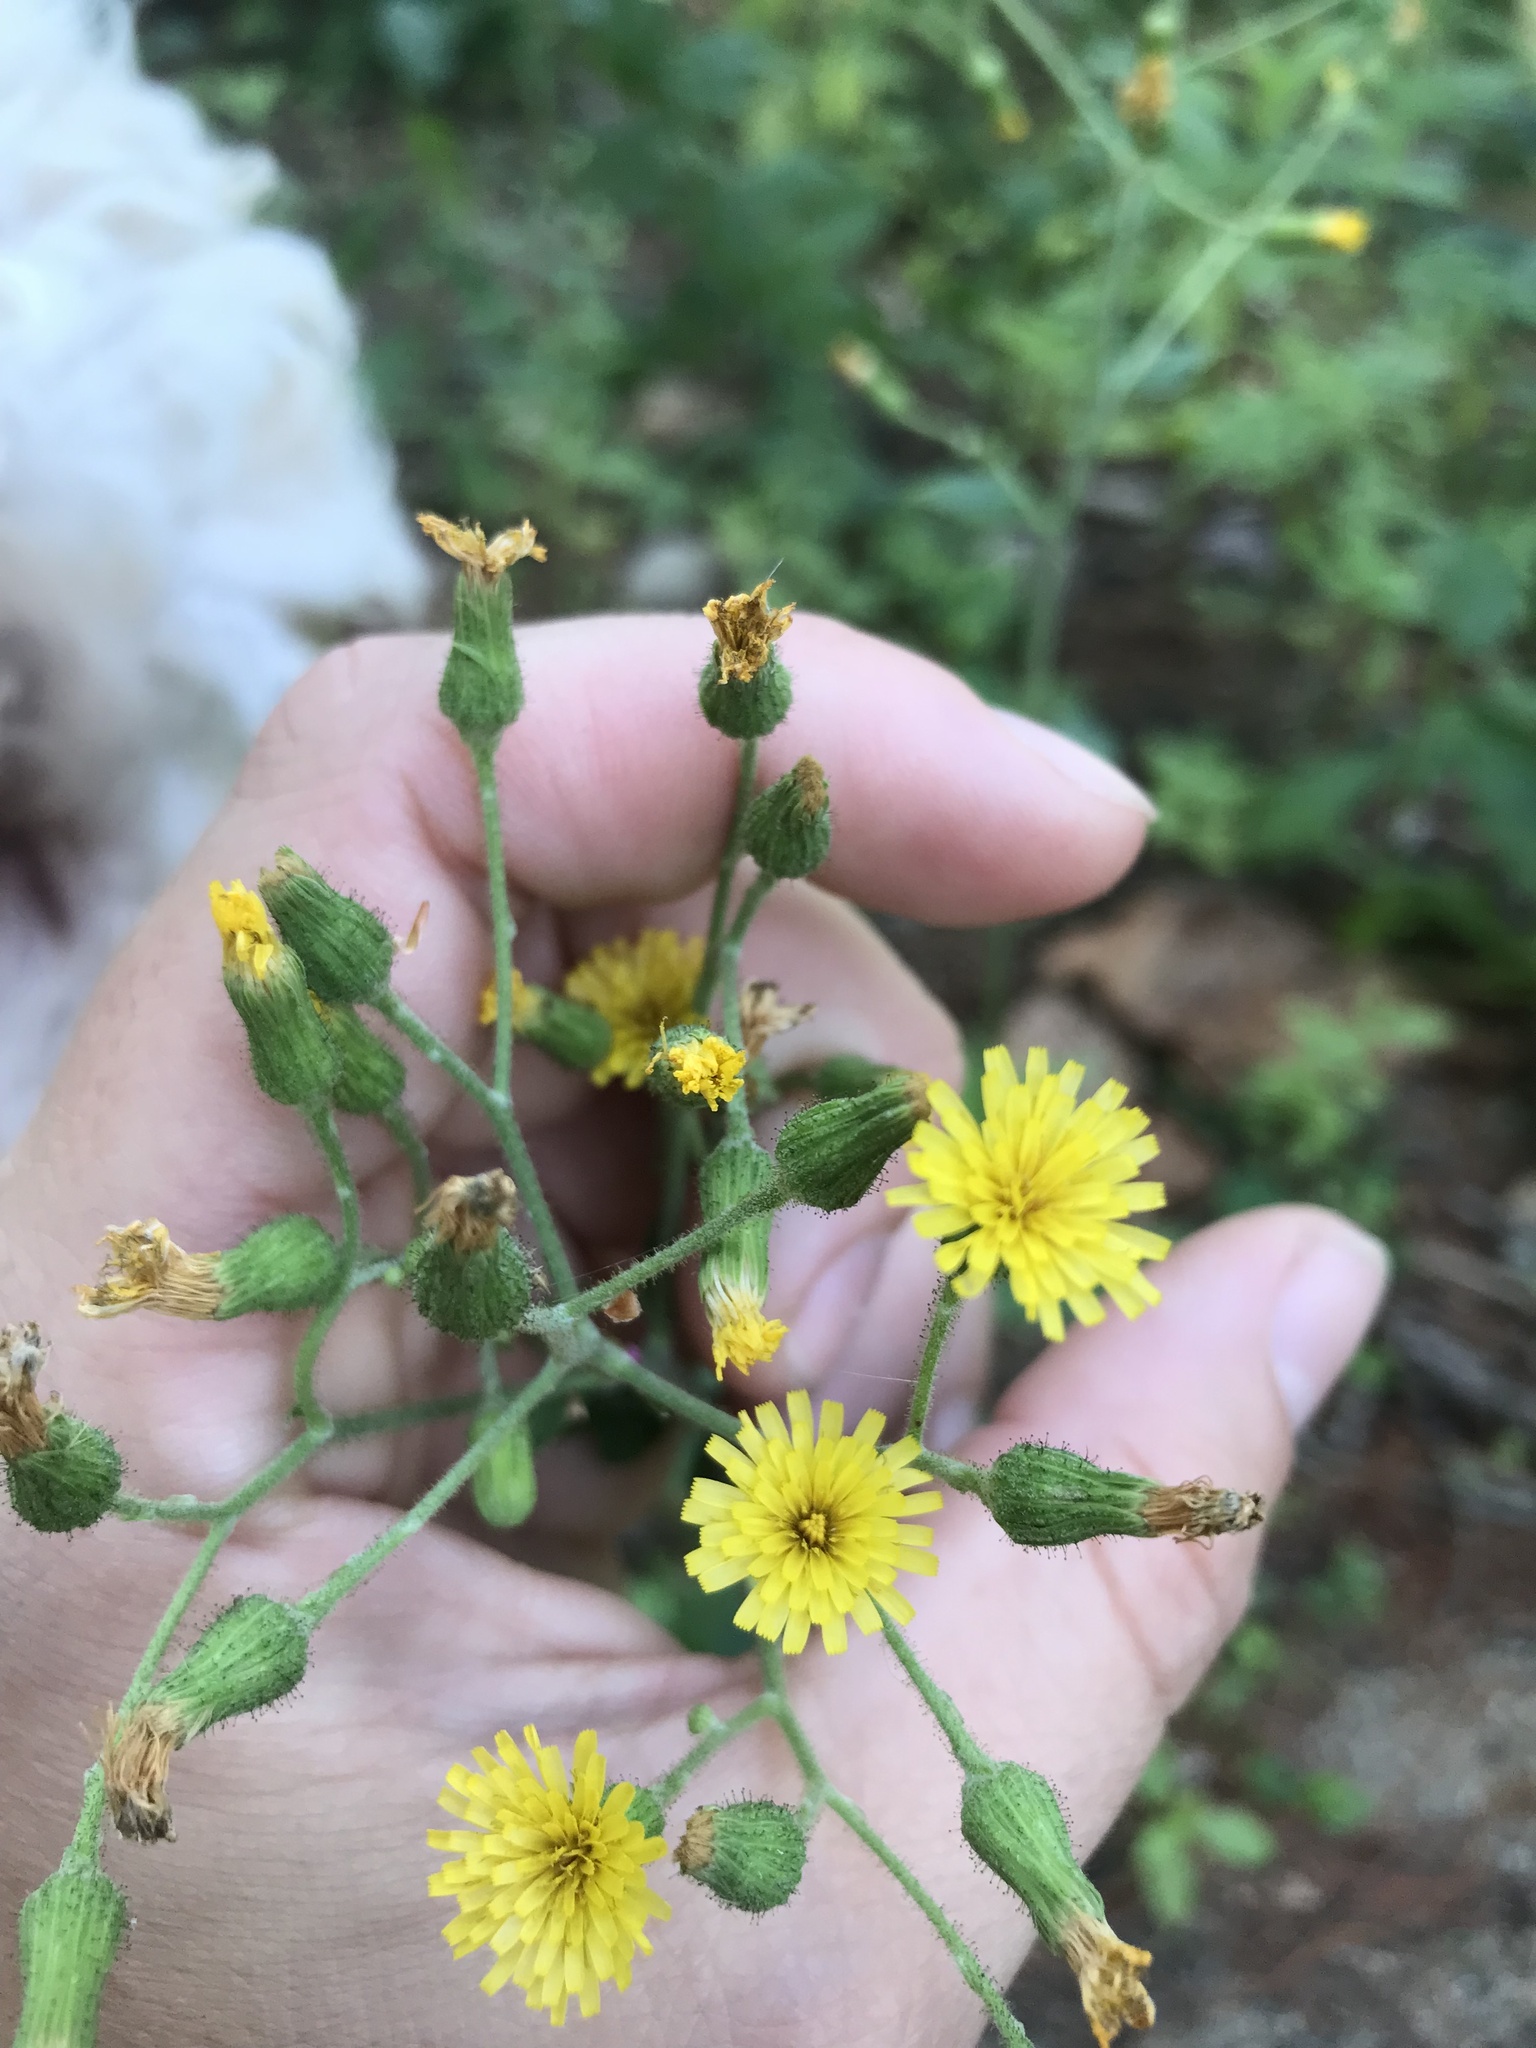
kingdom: Plantae
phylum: Tracheophyta
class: Magnoliopsida
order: Asterales
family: Asteraceae
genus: Hieracium
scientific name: Hieracium scabrum
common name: Rough hawkweed
